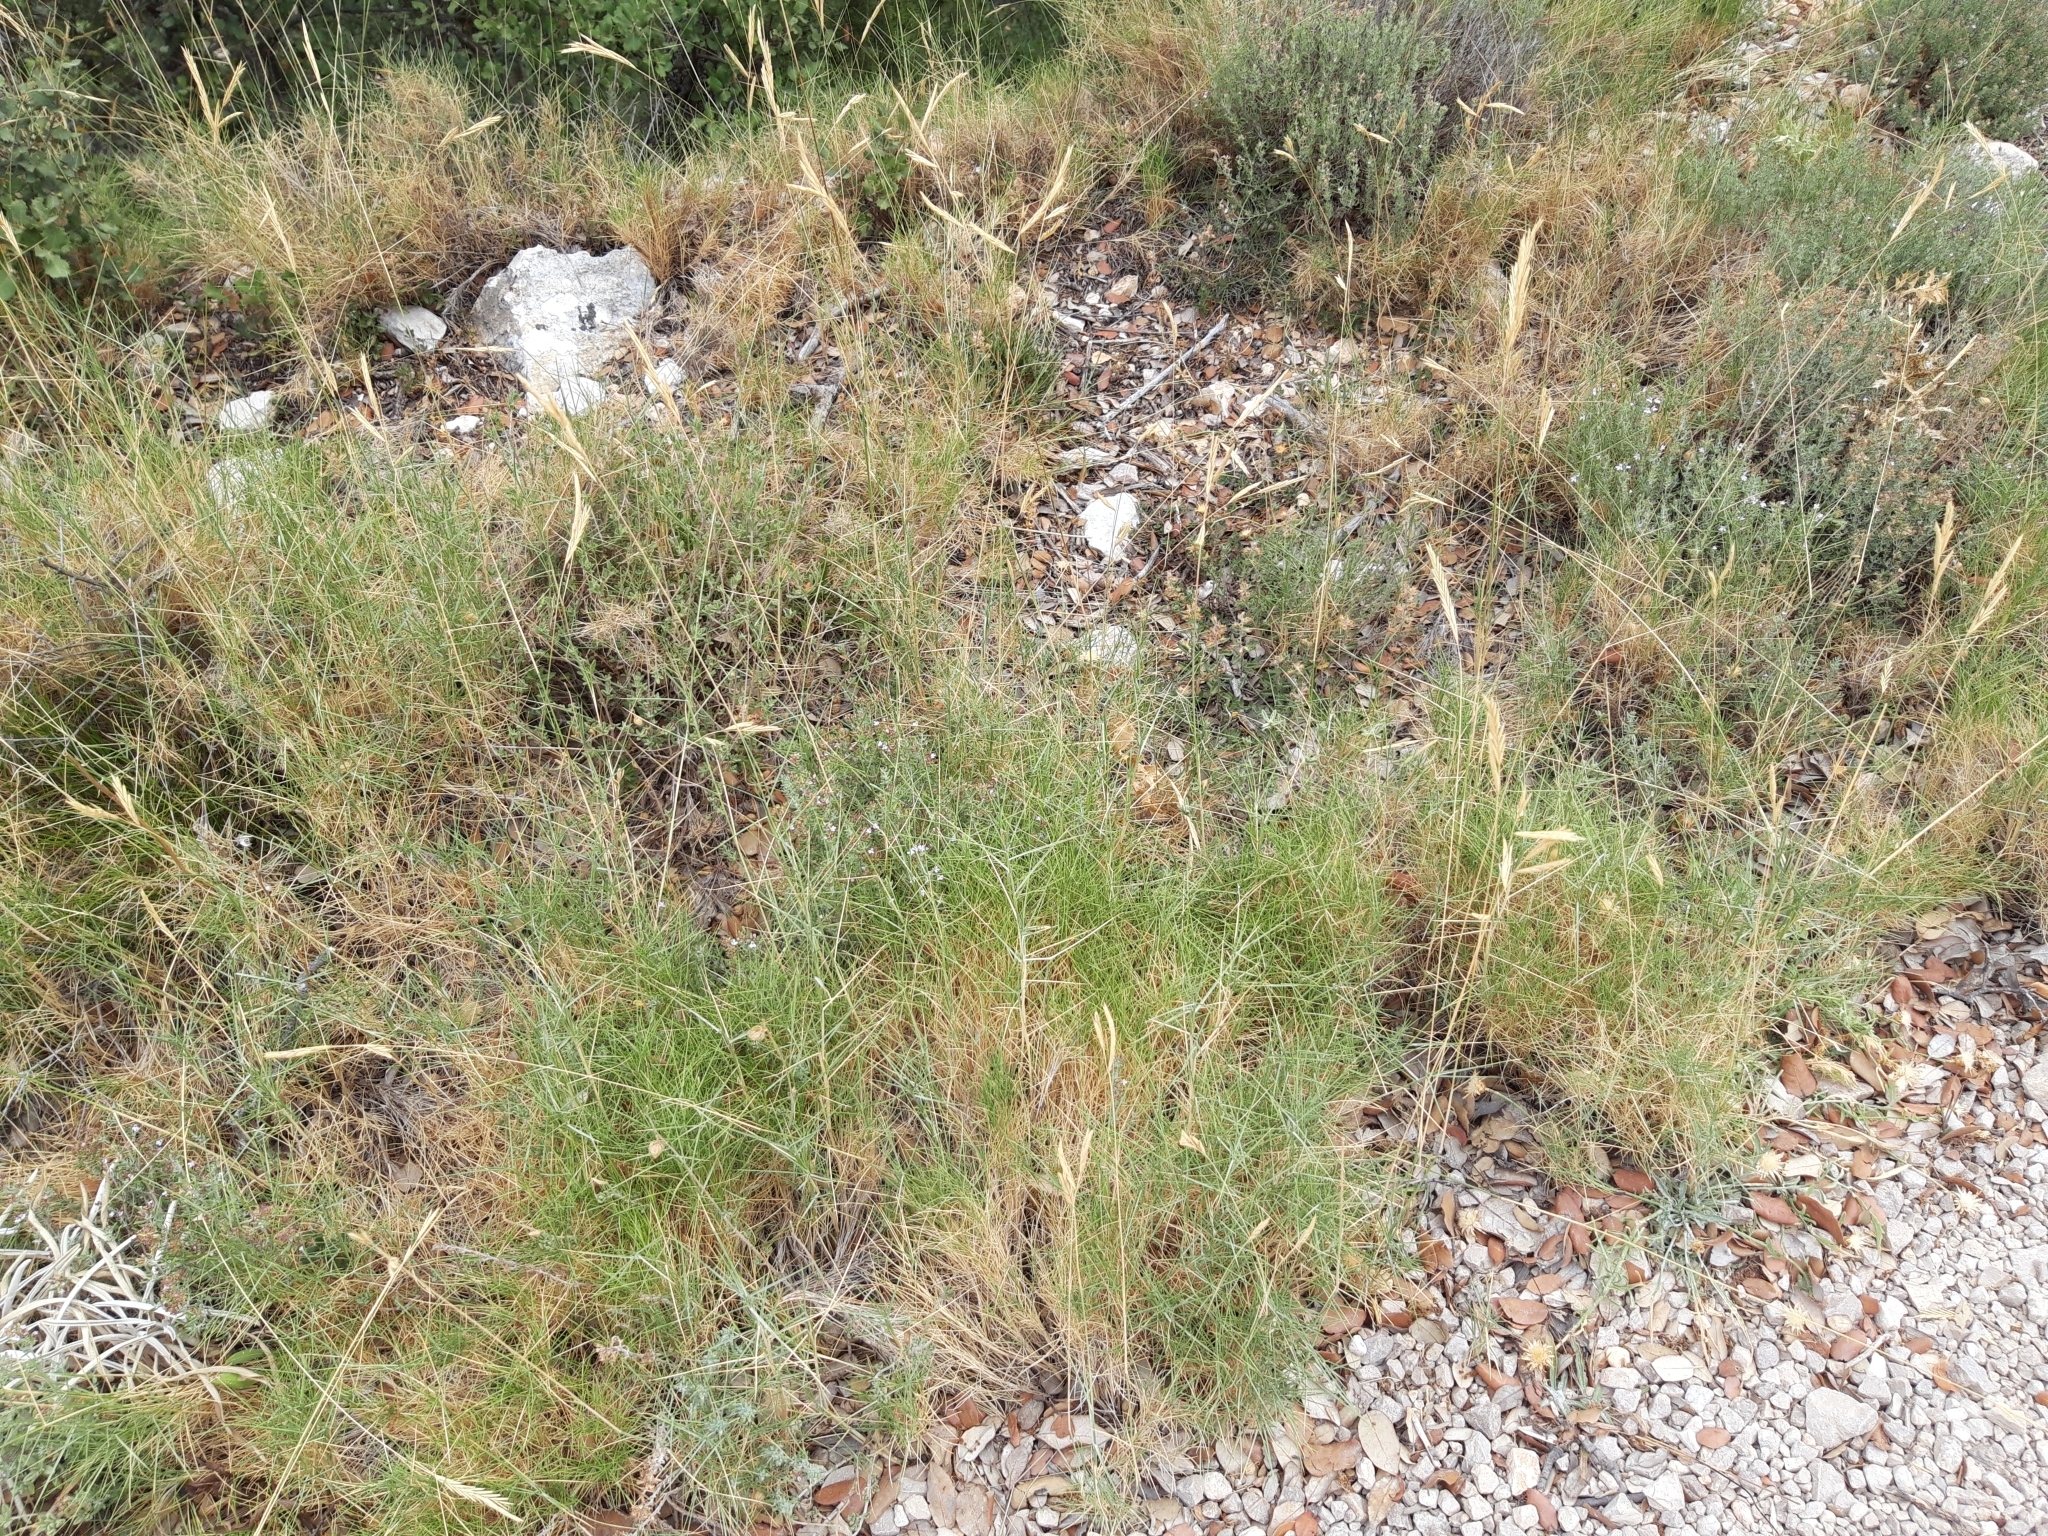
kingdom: Plantae
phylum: Tracheophyta
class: Liliopsida
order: Poales
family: Poaceae
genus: Brachypodium
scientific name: Brachypodium retusum
